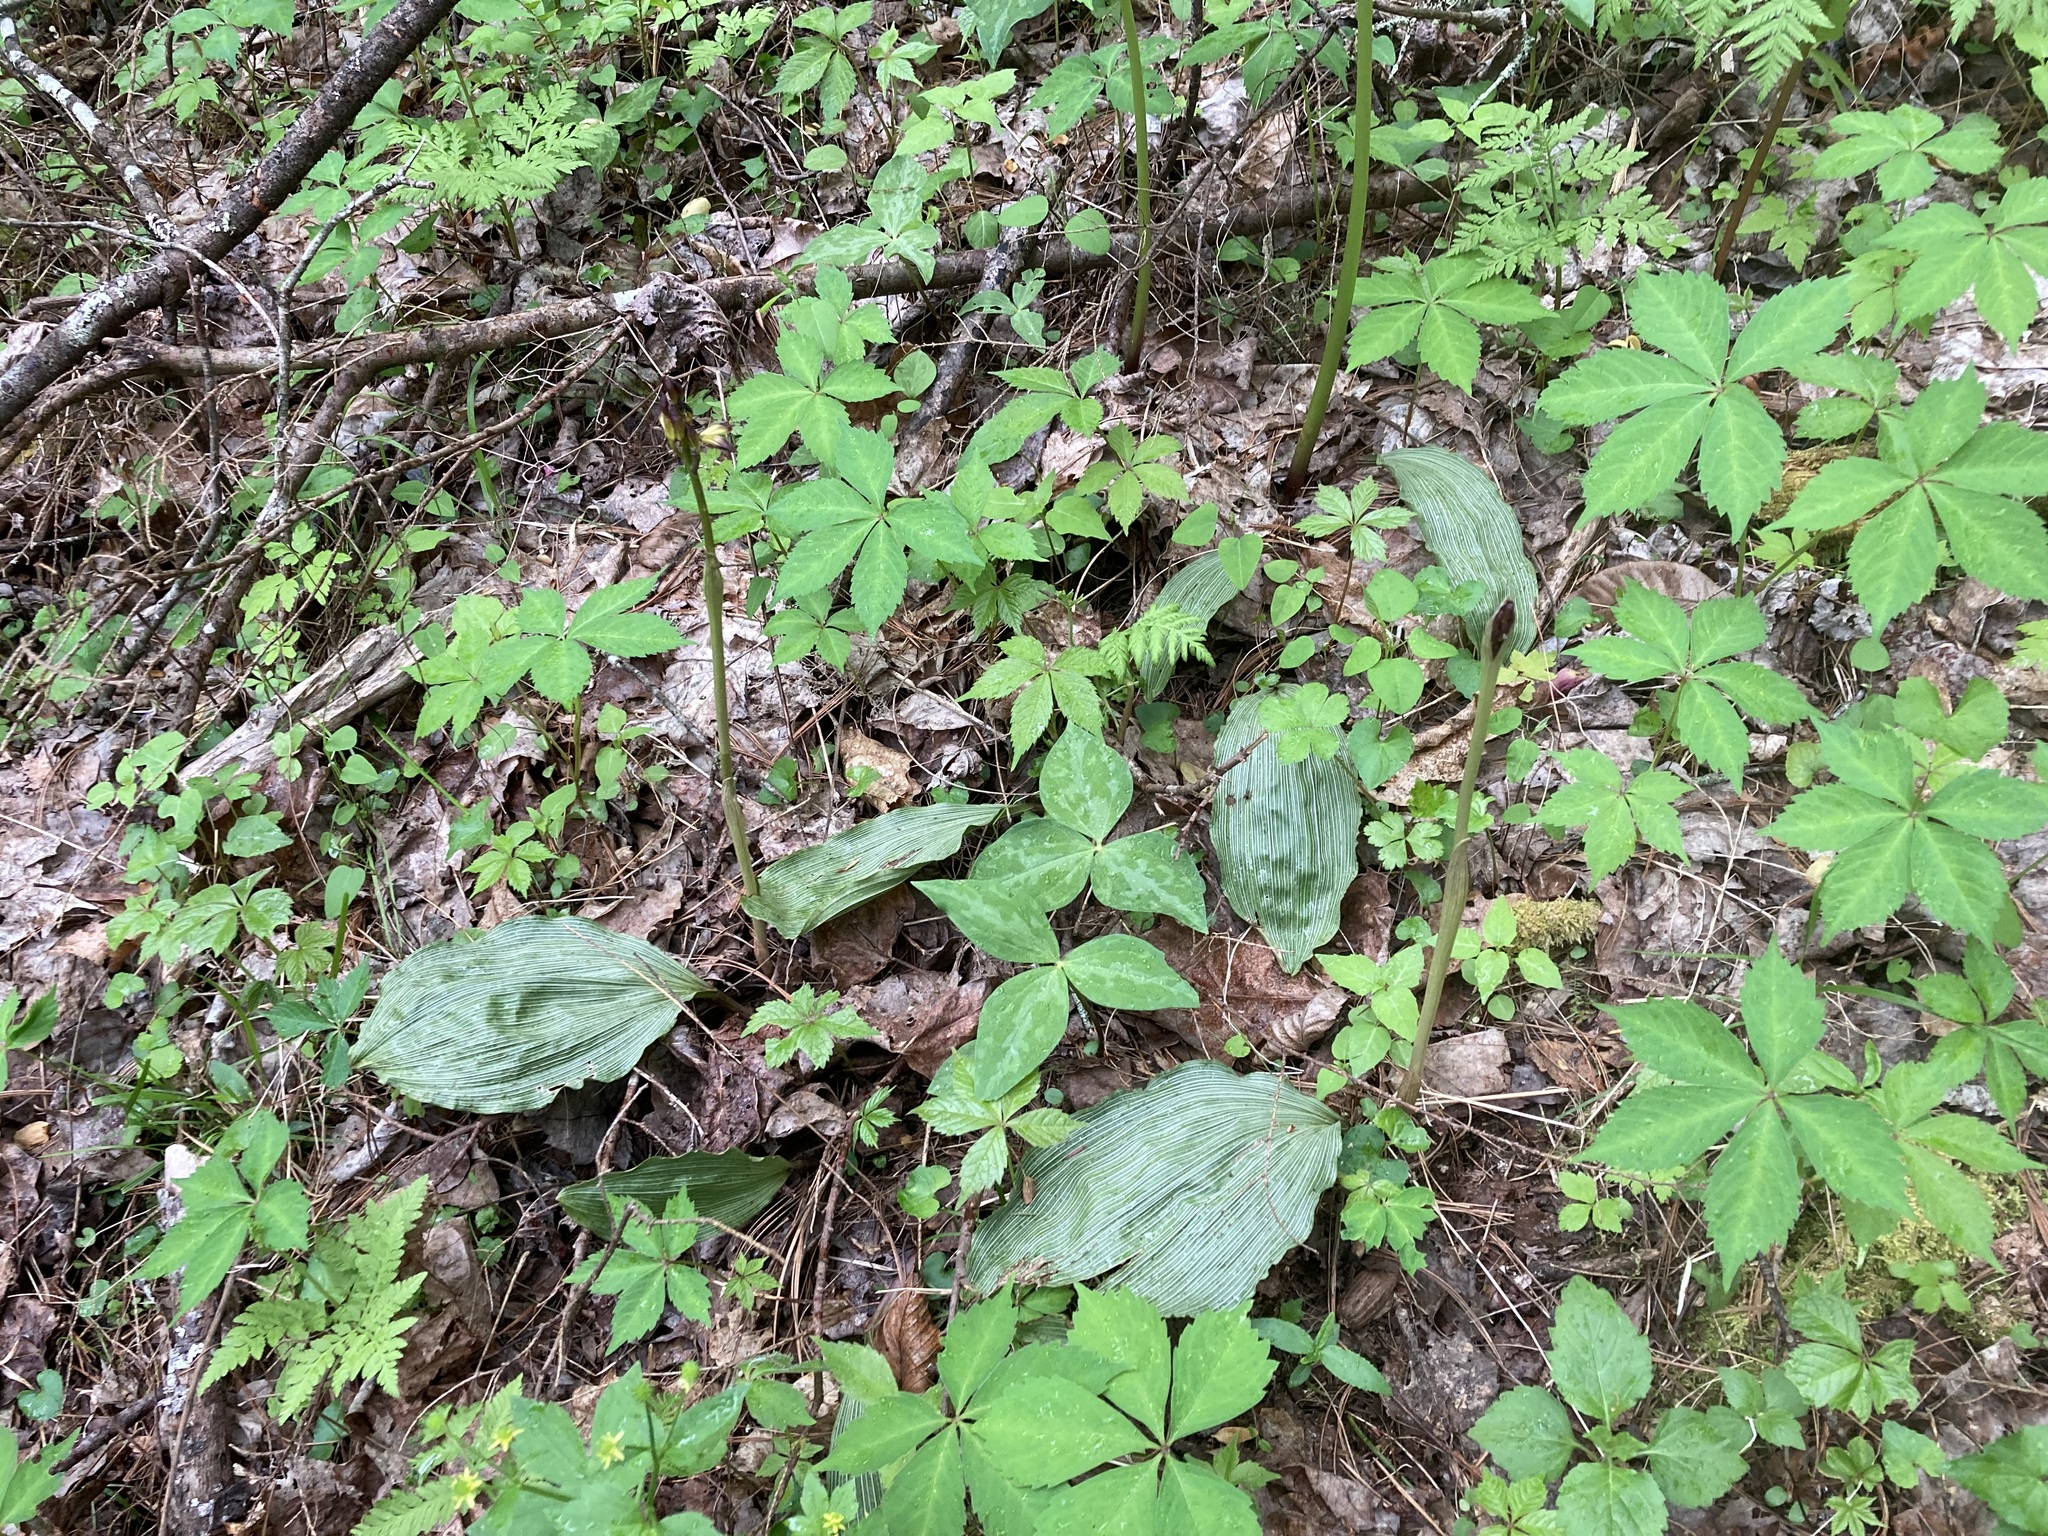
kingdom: Plantae
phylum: Tracheophyta
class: Liliopsida
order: Asparagales
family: Orchidaceae
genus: Aplectrum
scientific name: Aplectrum hyemale
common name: Adam-and-eve
